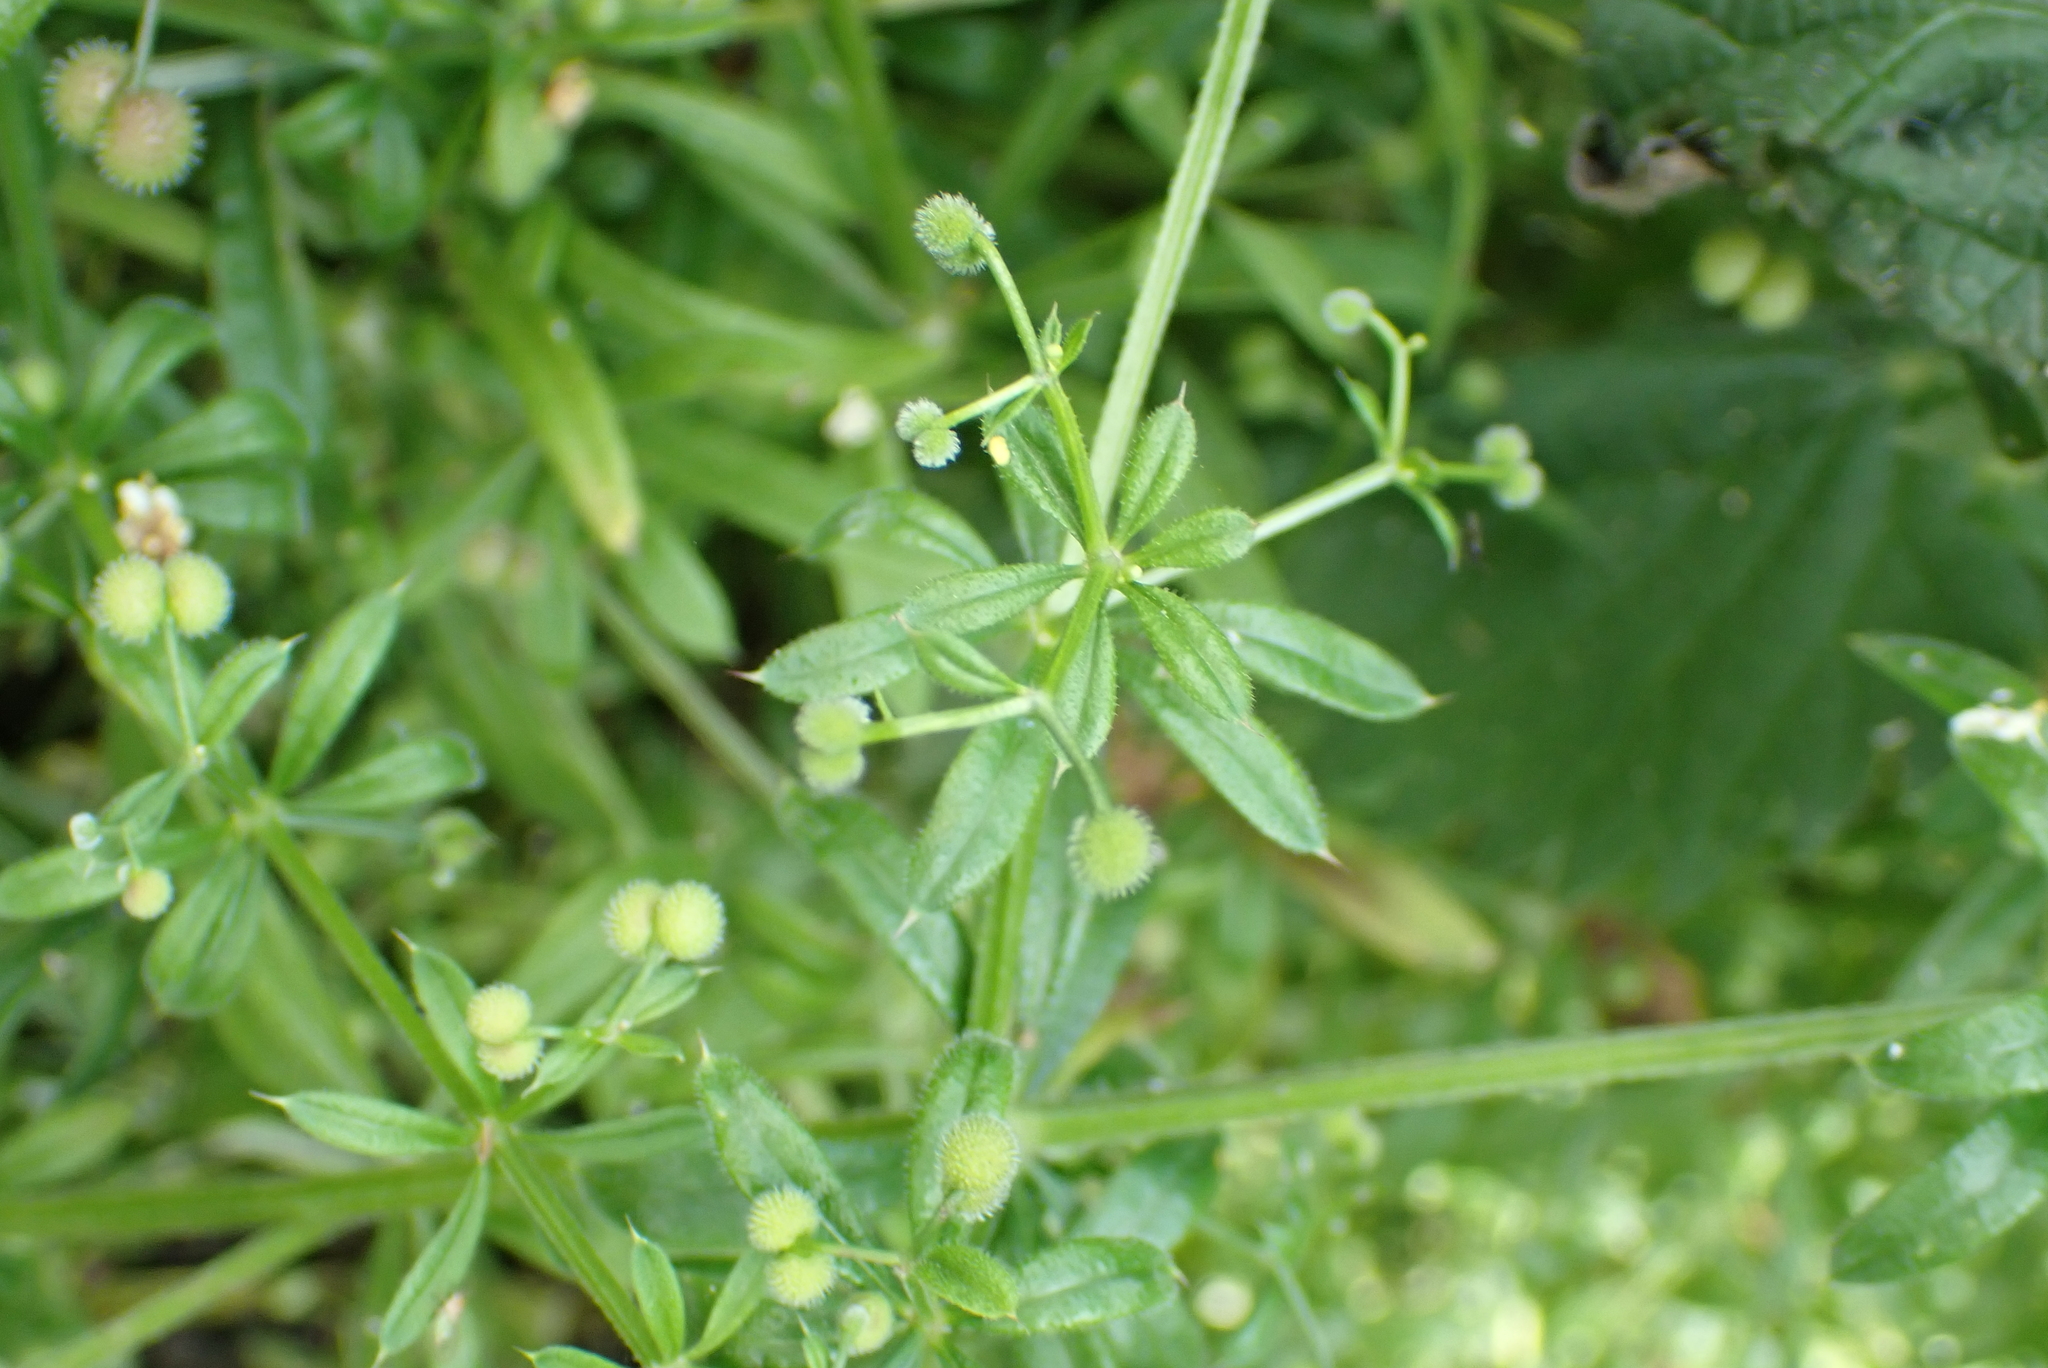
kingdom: Plantae
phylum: Tracheophyta
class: Magnoliopsida
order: Gentianales
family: Rubiaceae
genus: Galium
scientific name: Galium aparine
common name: Cleavers
